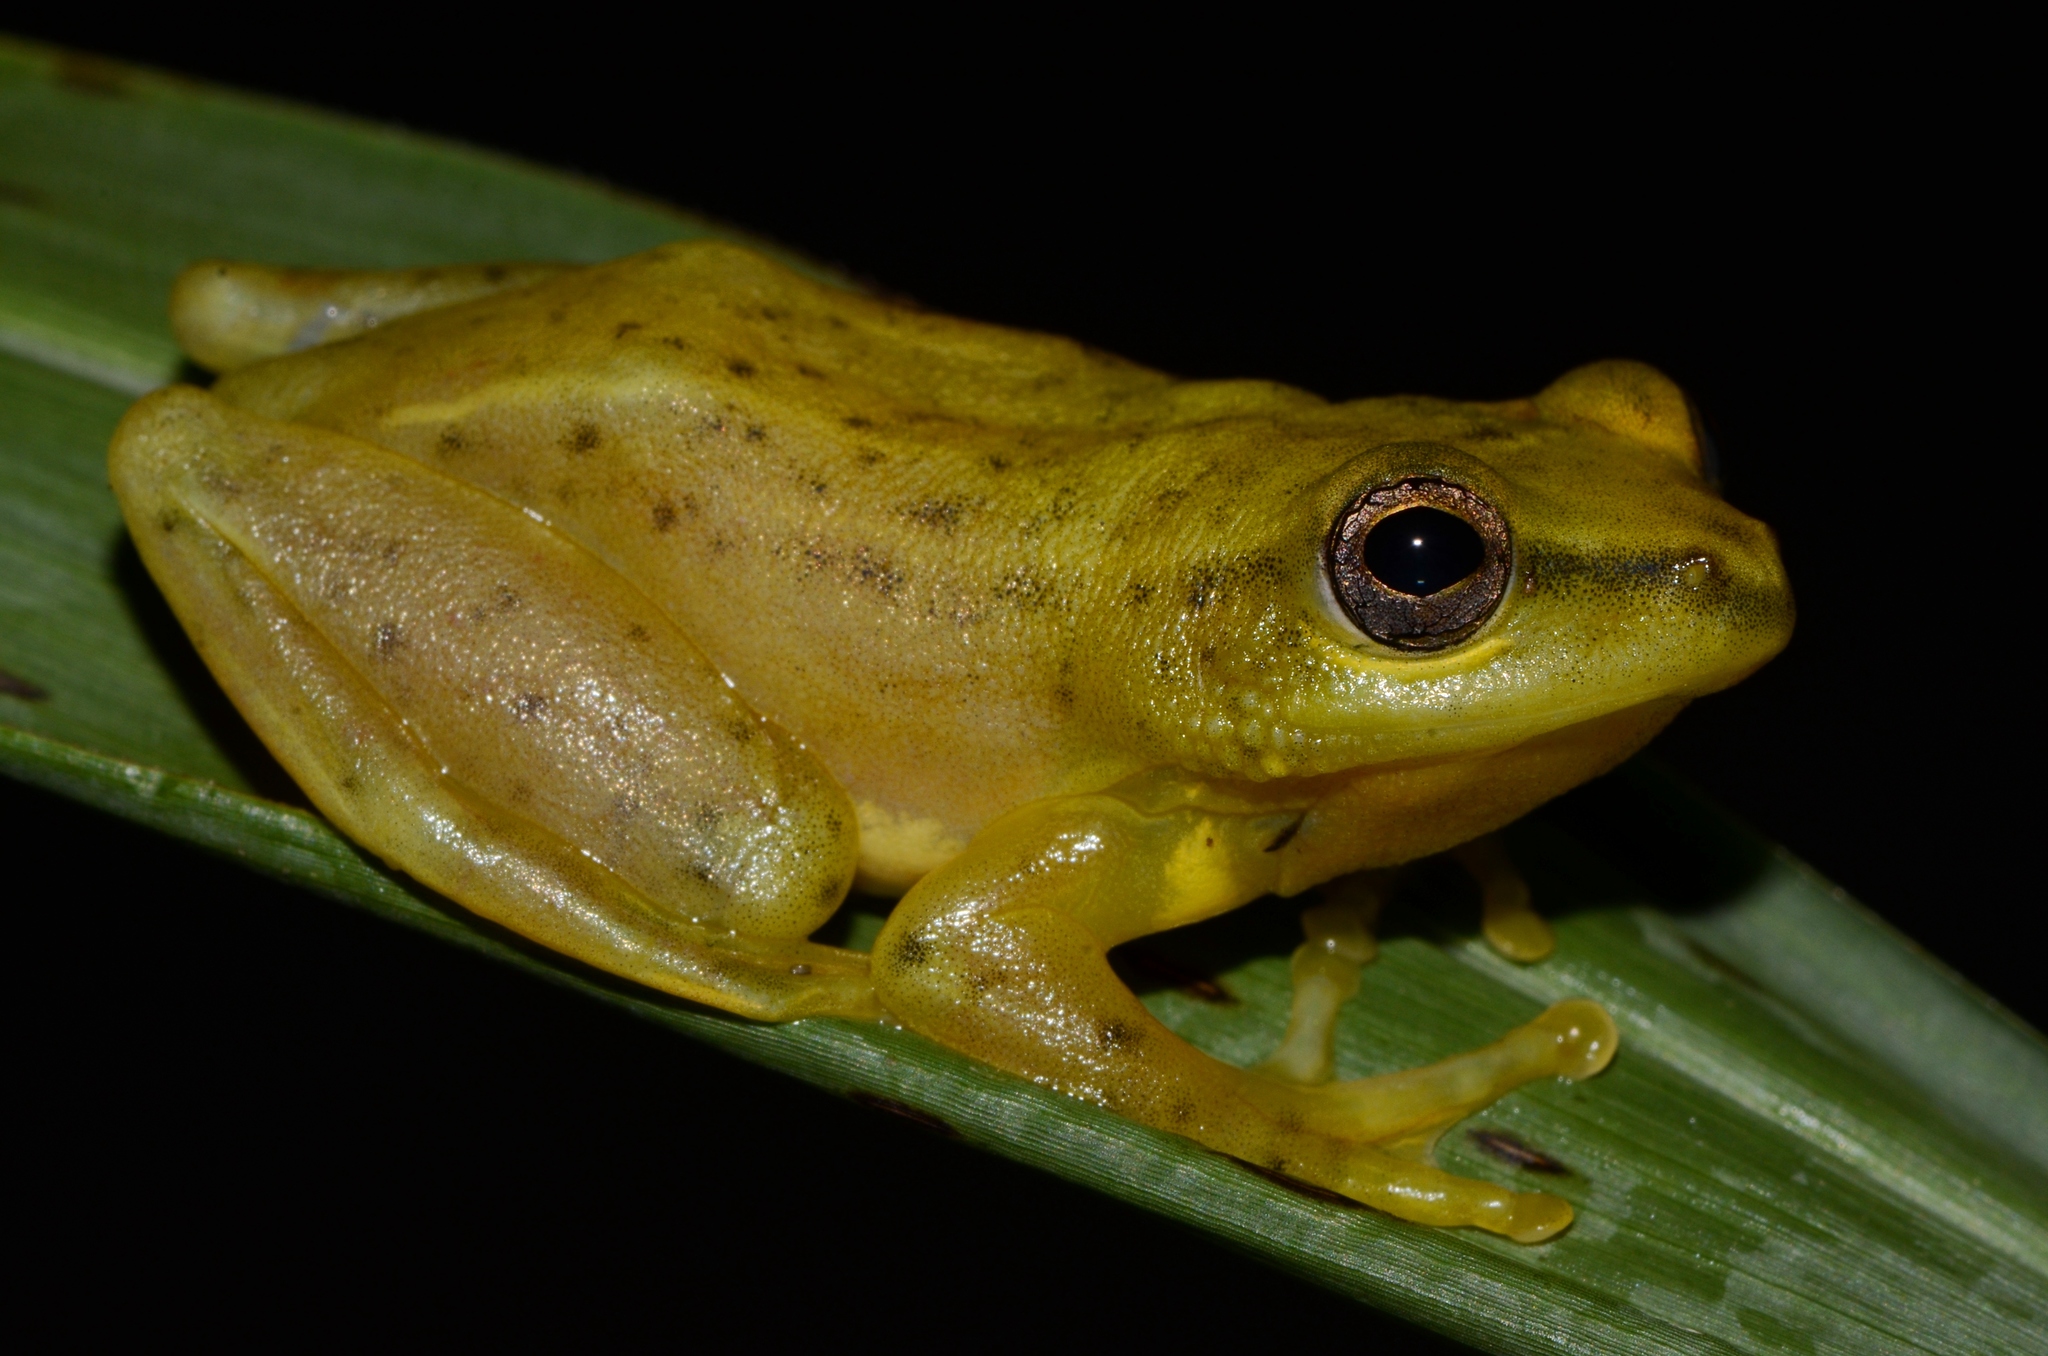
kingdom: Animalia
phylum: Chordata
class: Amphibia
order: Anura
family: Hyperoliidae
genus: Hyperolius
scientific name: Hyperolius guttulatus
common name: Dotted reed frog
